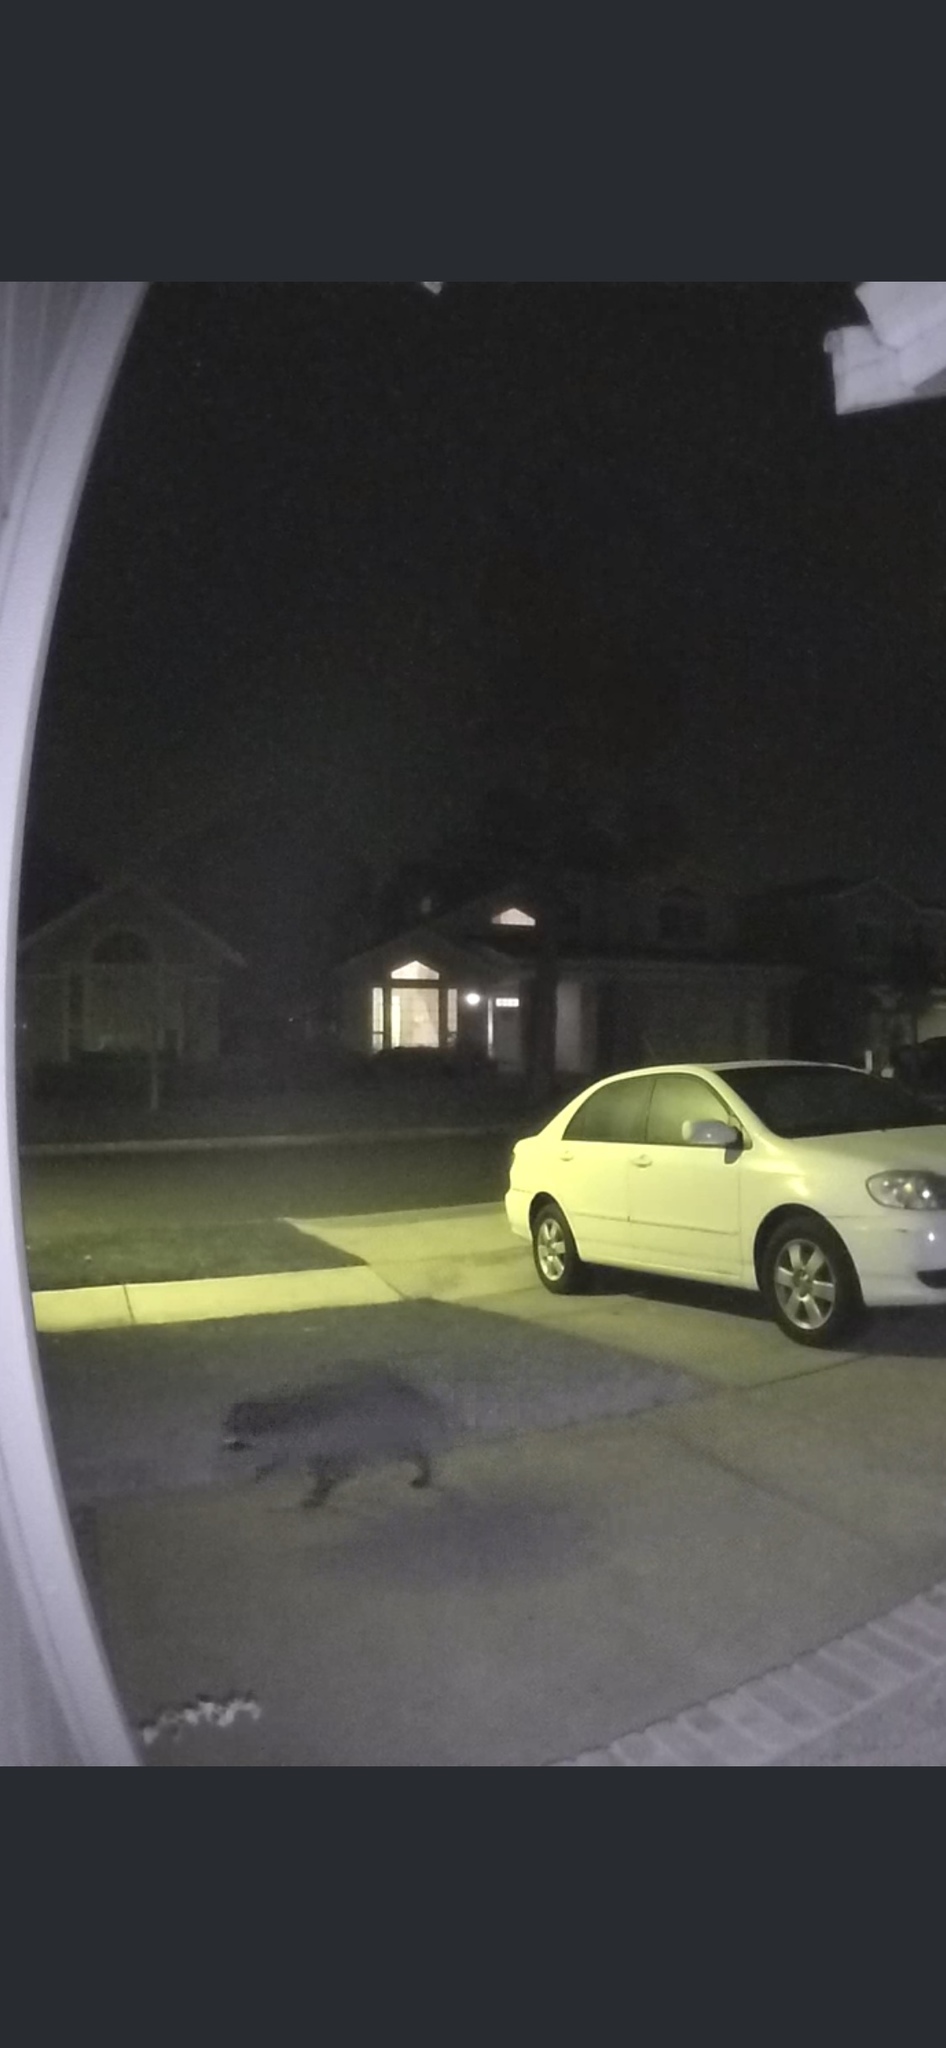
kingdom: Animalia
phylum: Chordata
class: Mammalia
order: Carnivora
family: Procyonidae
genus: Procyon
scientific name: Procyon lotor
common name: Raccoon
